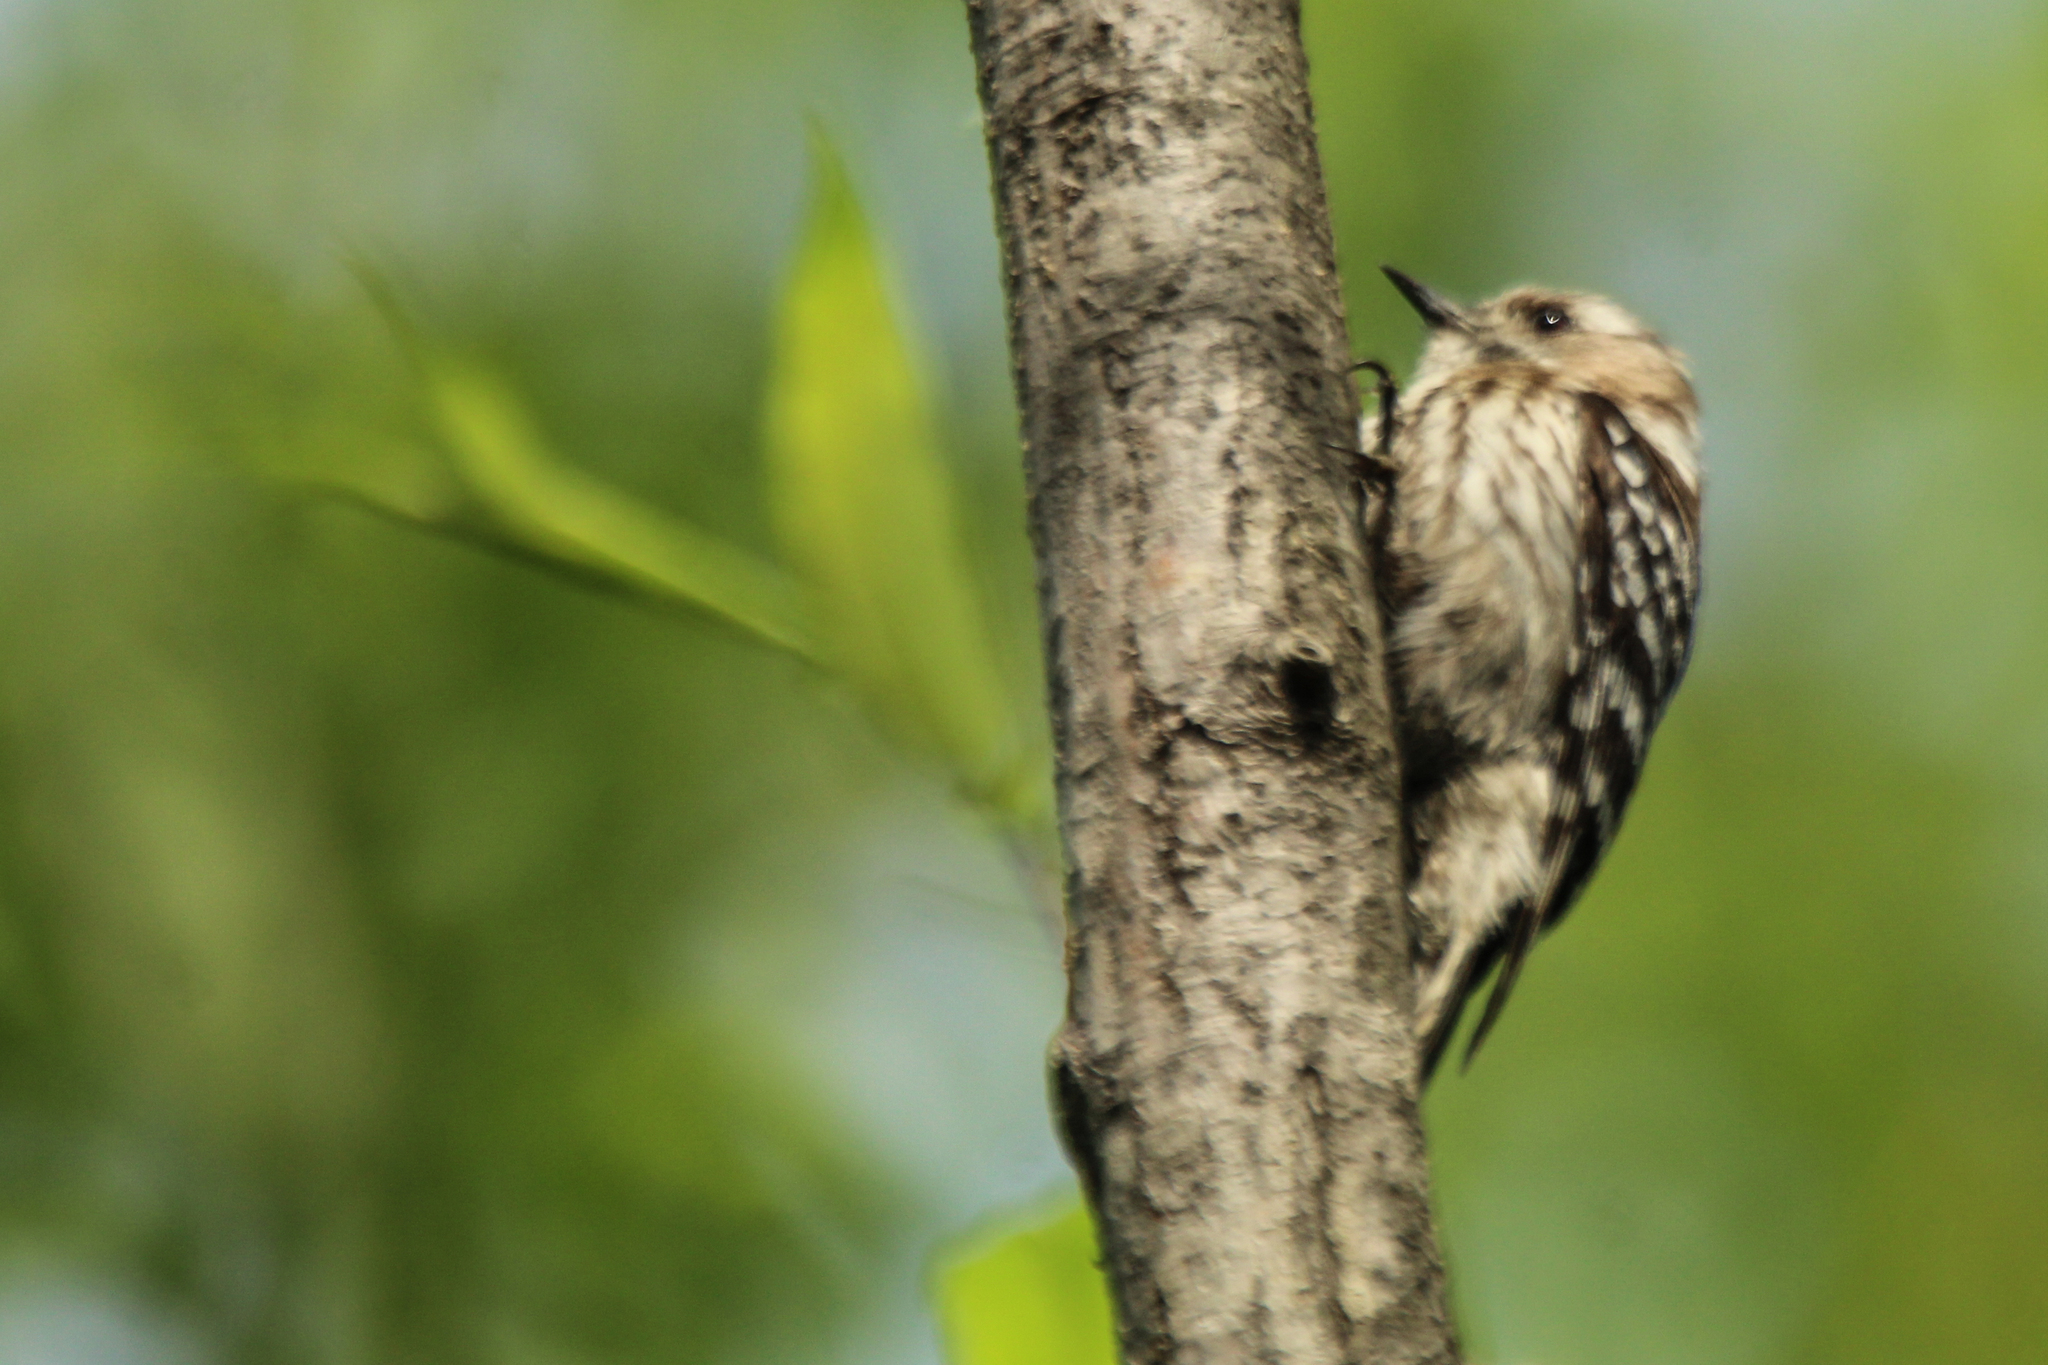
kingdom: Animalia
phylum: Chordata
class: Aves
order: Piciformes
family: Picidae
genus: Yungipicus
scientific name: Yungipicus kizuki
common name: Japanese pygmy woodpecker
